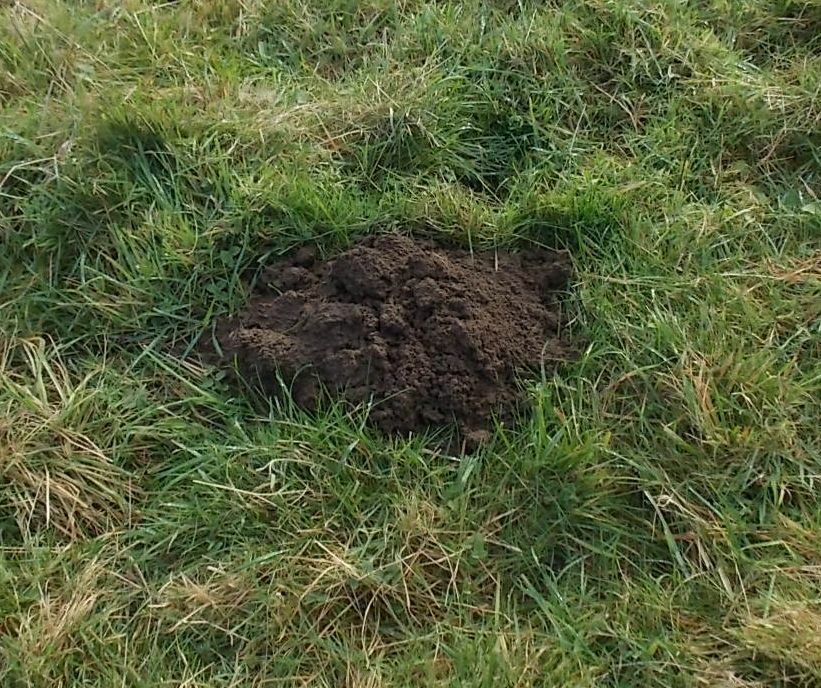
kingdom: Animalia
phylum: Chordata
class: Mammalia
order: Soricomorpha
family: Talpidae
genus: Talpa
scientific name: Talpa europaea
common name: European mole
